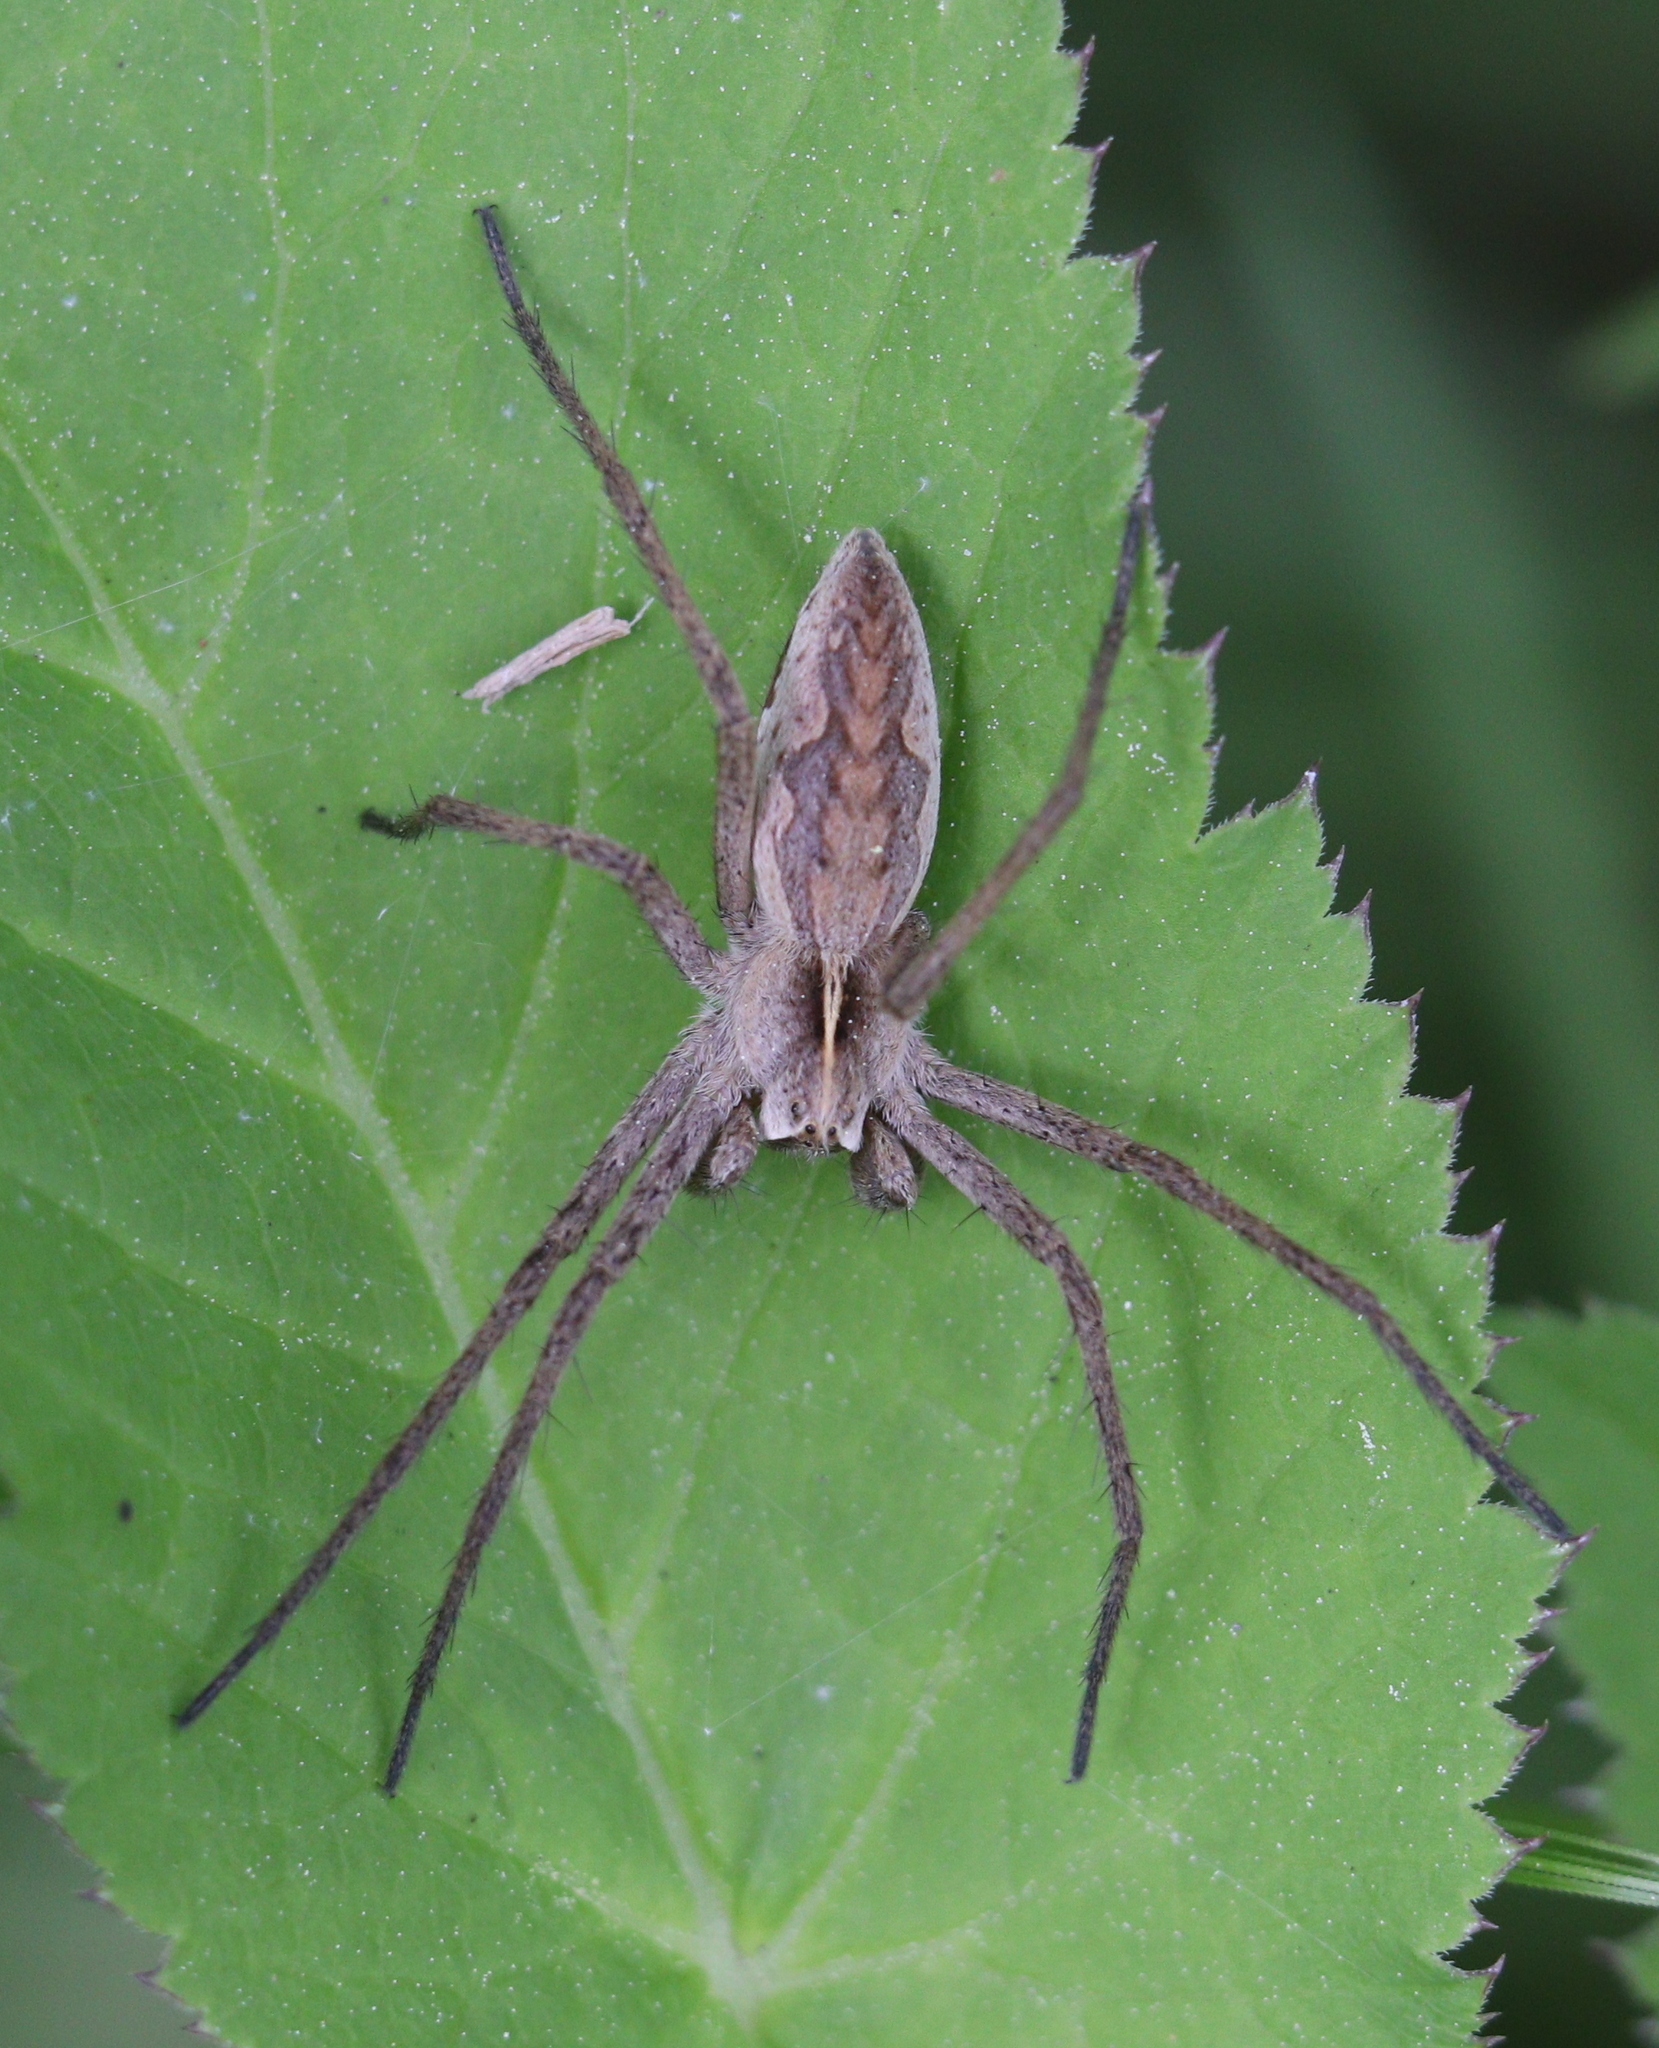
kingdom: Animalia
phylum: Arthropoda
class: Arachnida
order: Araneae
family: Pisauridae
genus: Pisaura
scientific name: Pisaura mirabilis
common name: Tent spider
